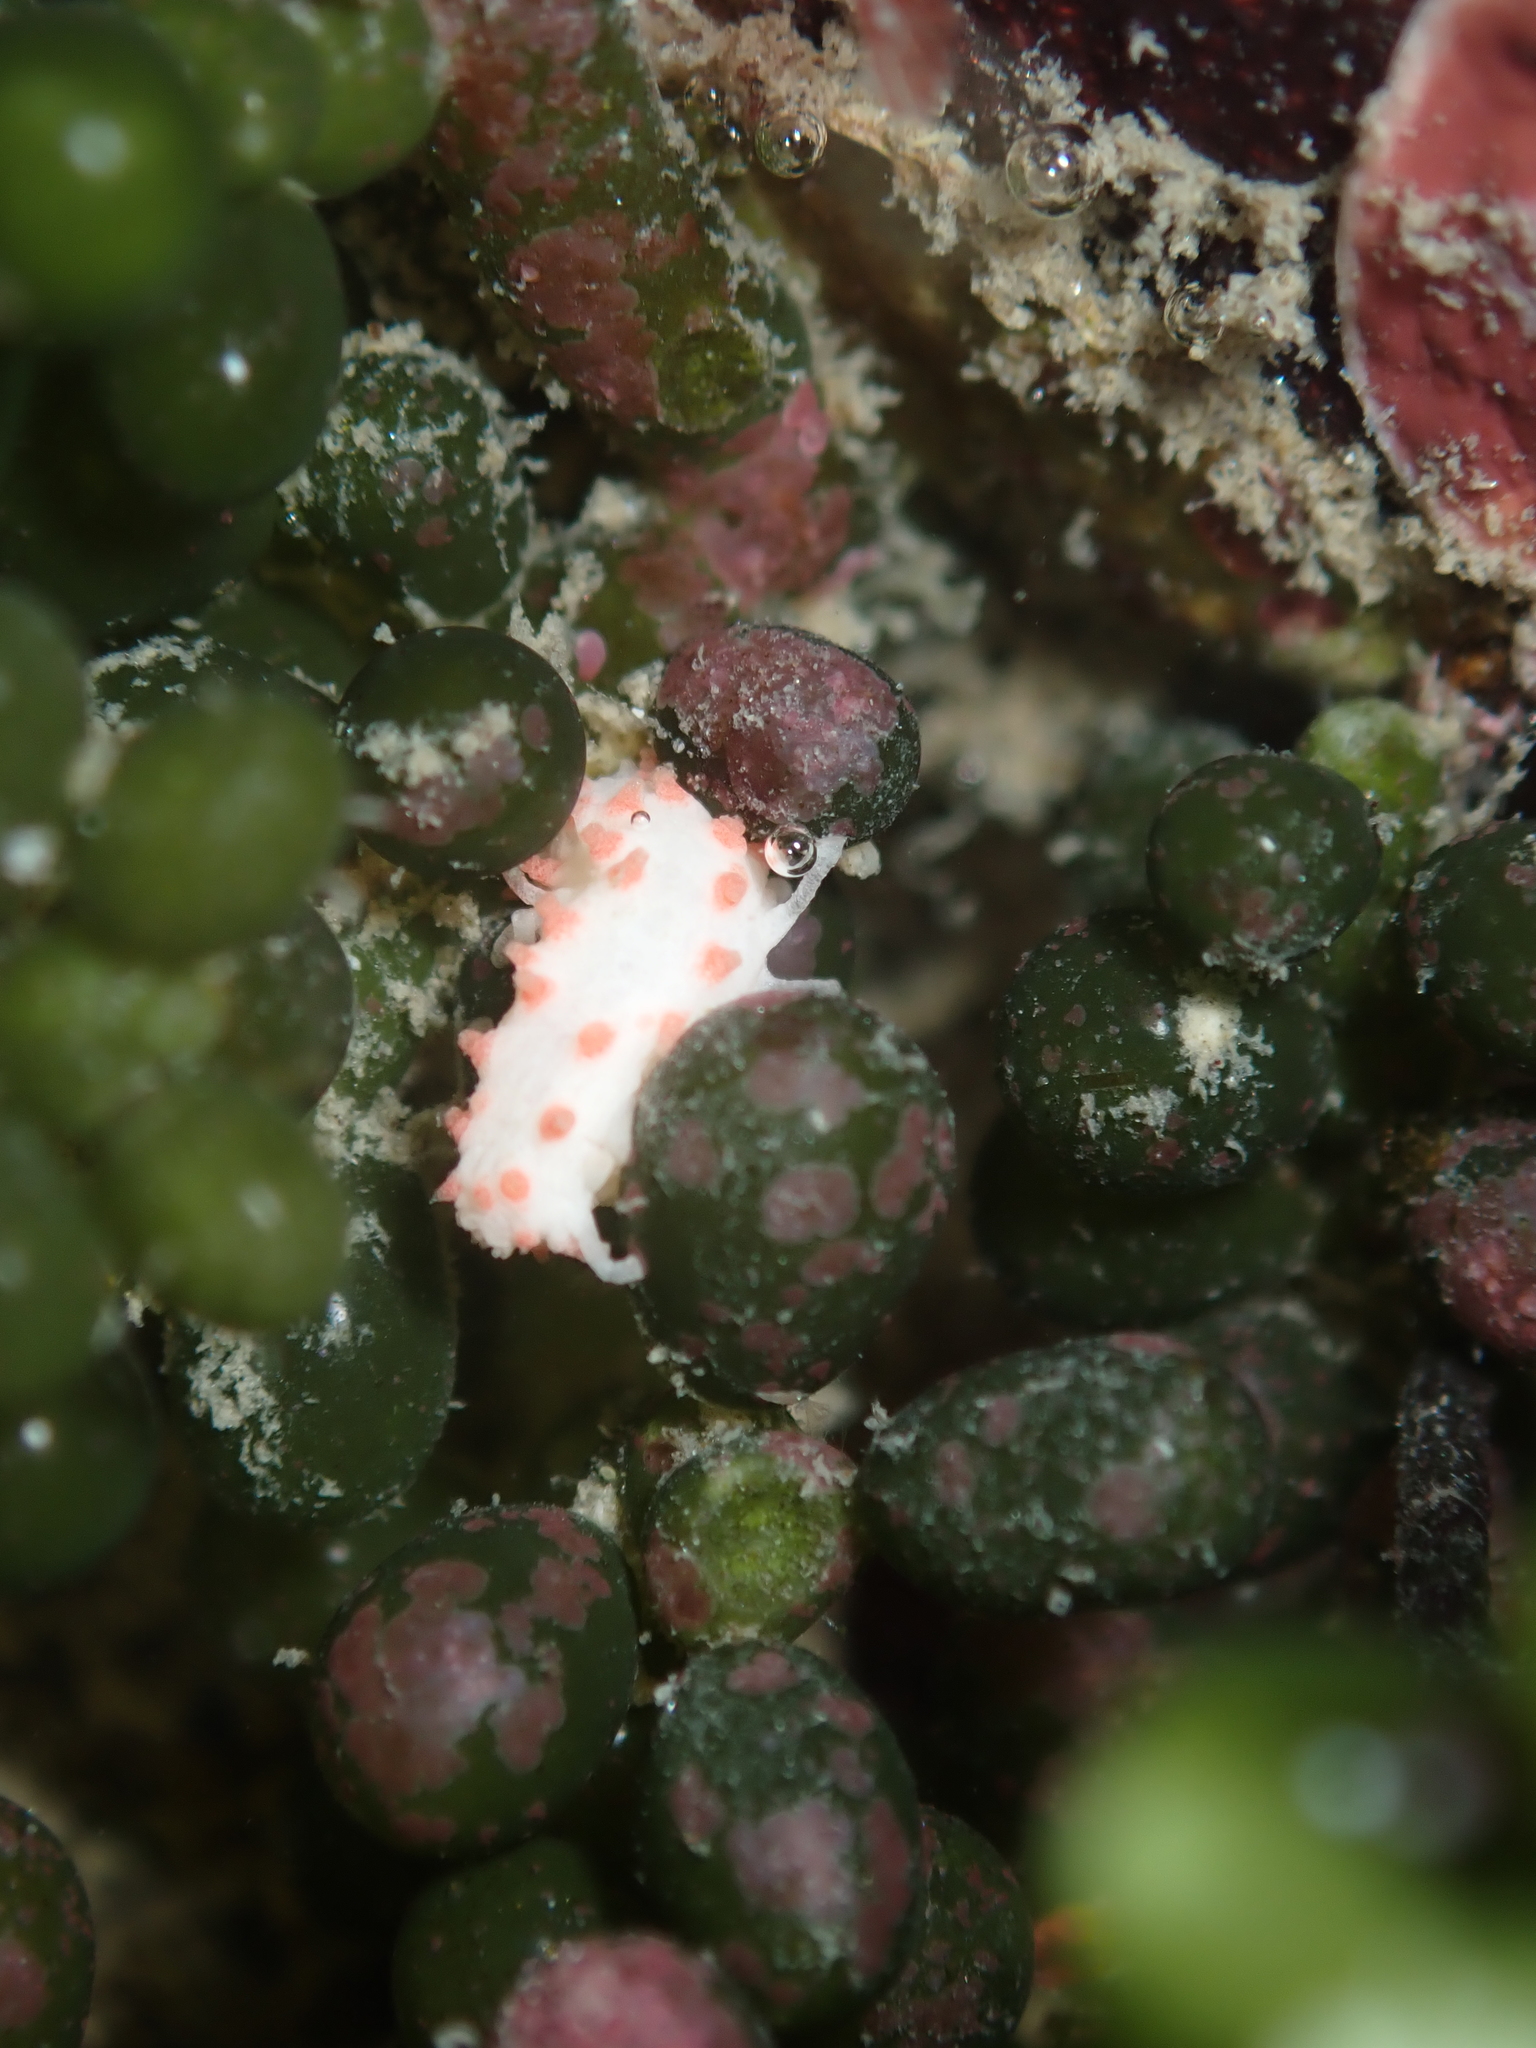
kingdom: Animalia
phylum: Echinodermata
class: Holothuroidea
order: Dendrochirotida
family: Cucumariidae
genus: Australocnus
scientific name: Australocnus calcareus
